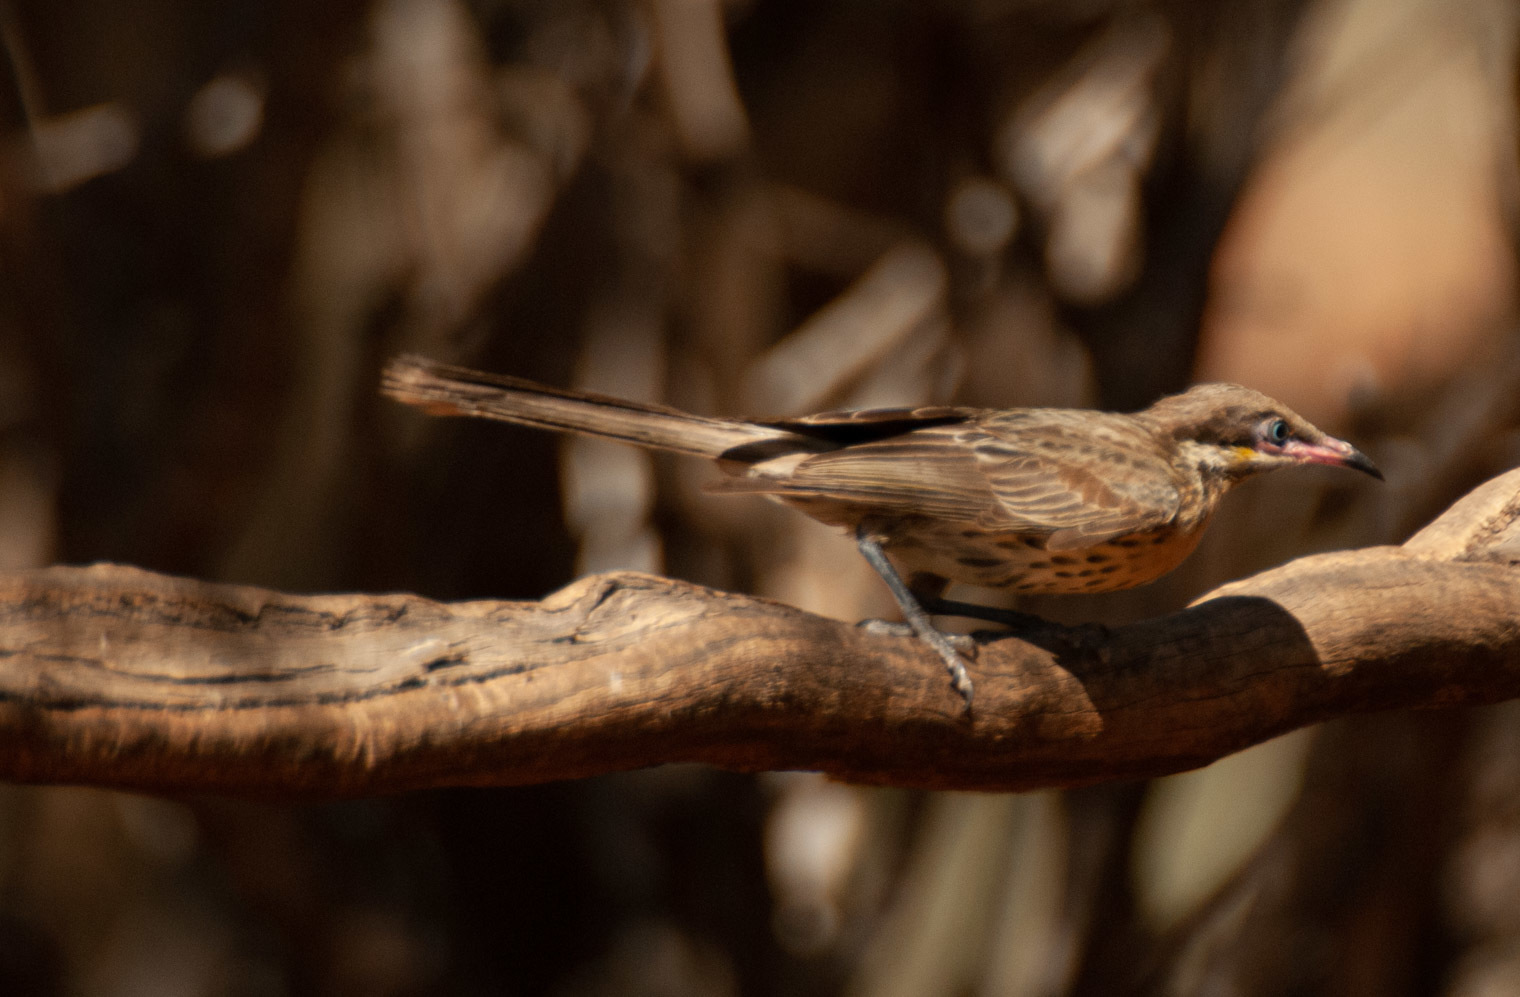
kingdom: Animalia
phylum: Chordata
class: Aves
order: Passeriformes
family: Meliphagidae
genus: Acanthagenys
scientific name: Acanthagenys rufogularis
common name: Spiny-cheeked honeyeater
